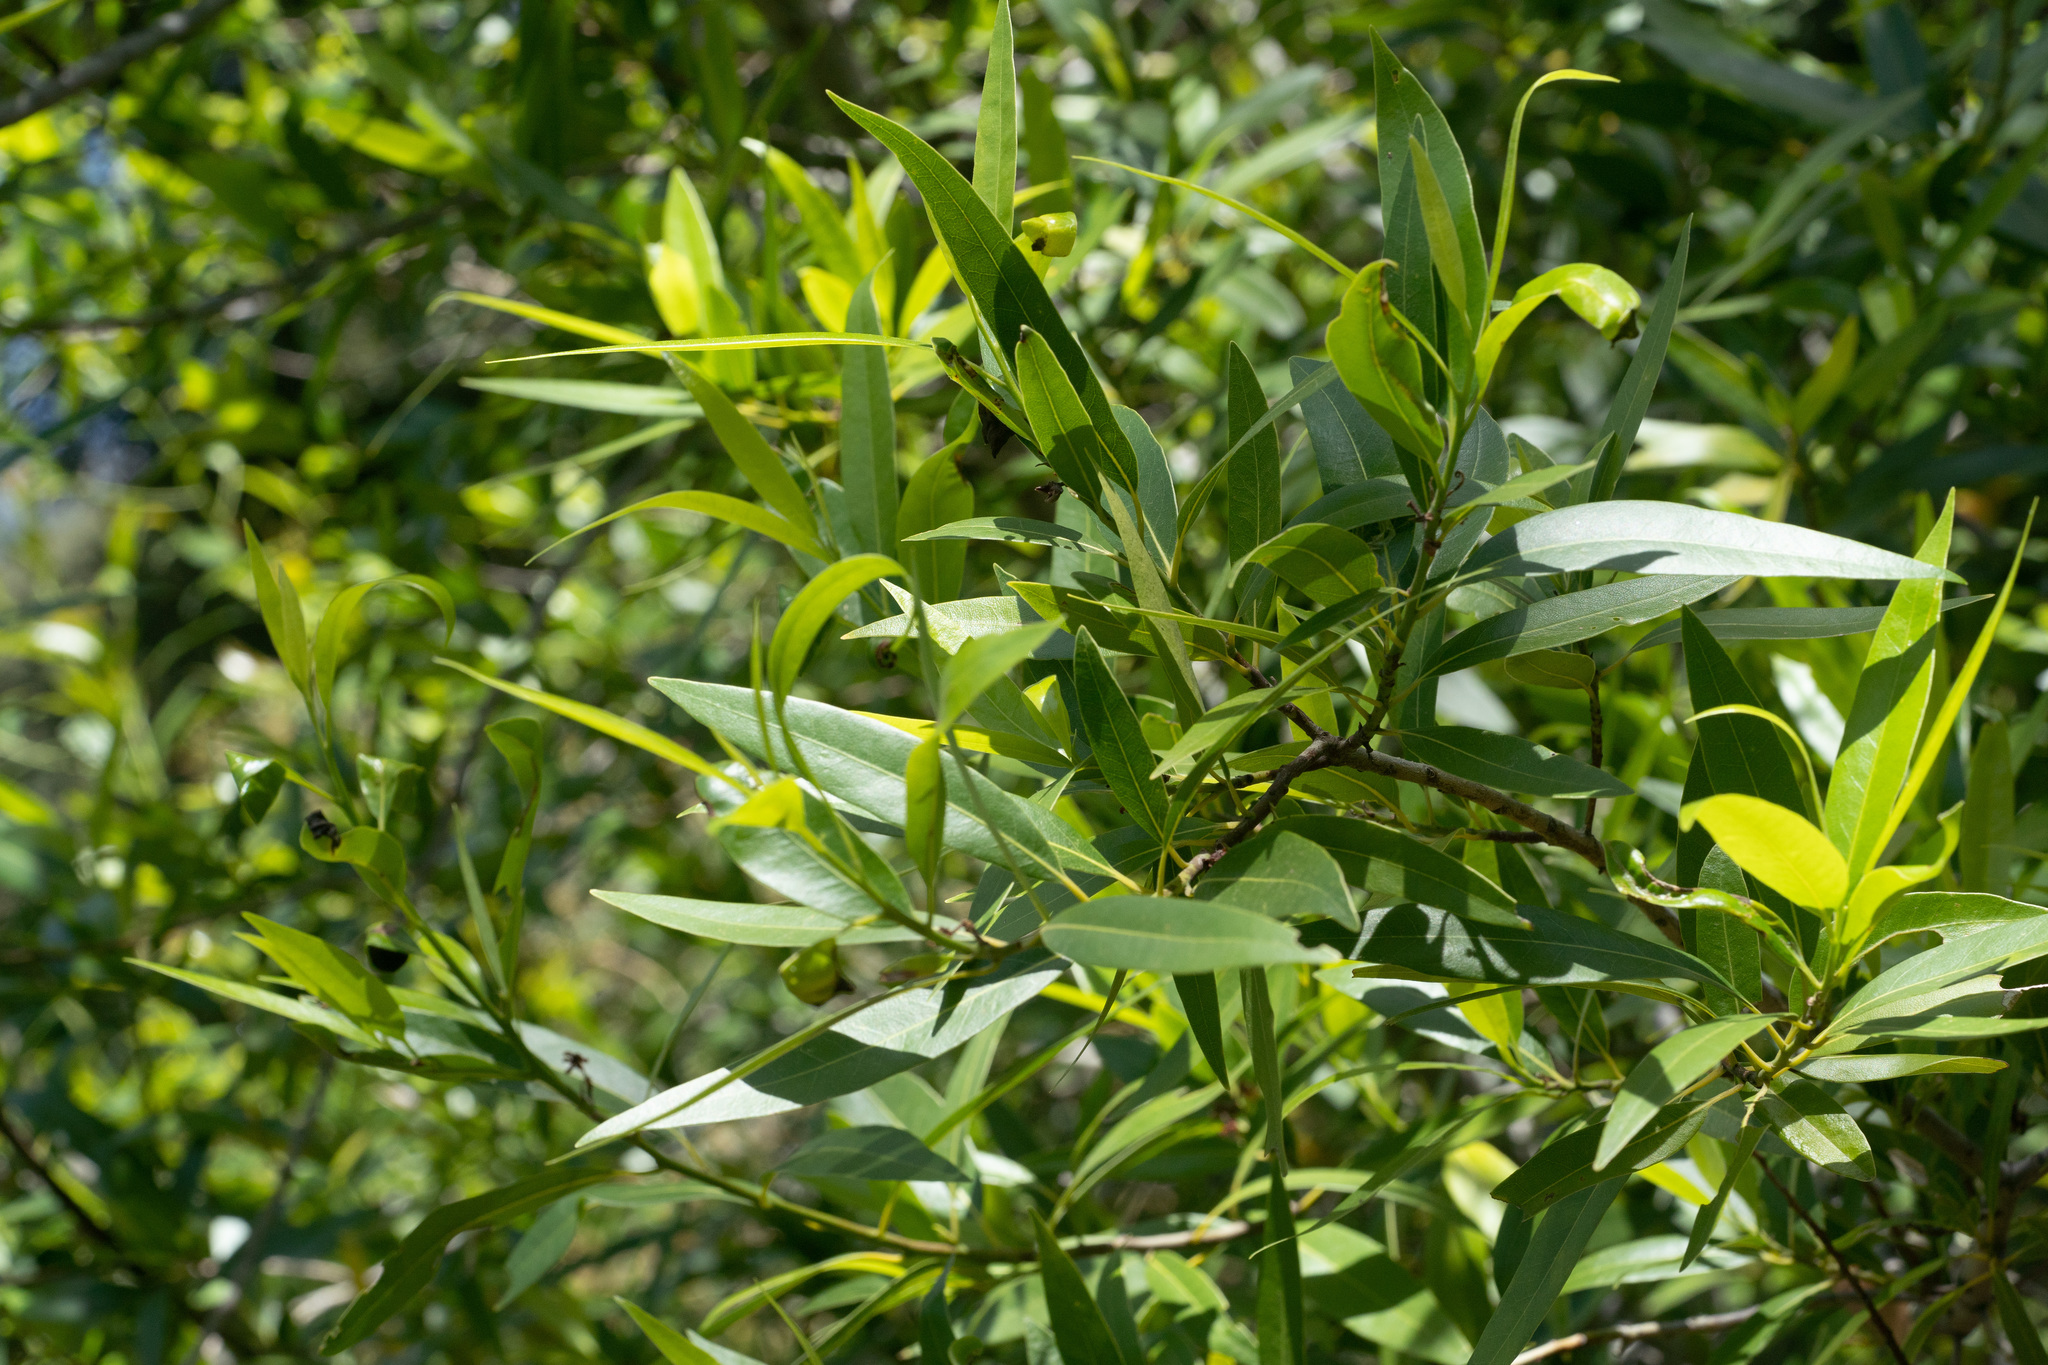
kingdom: Plantae
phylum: Tracheophyta
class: Magnoliopsida
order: Laurales
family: Lauraceae
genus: Umbellularia
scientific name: Umbellularia californica
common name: California bay
